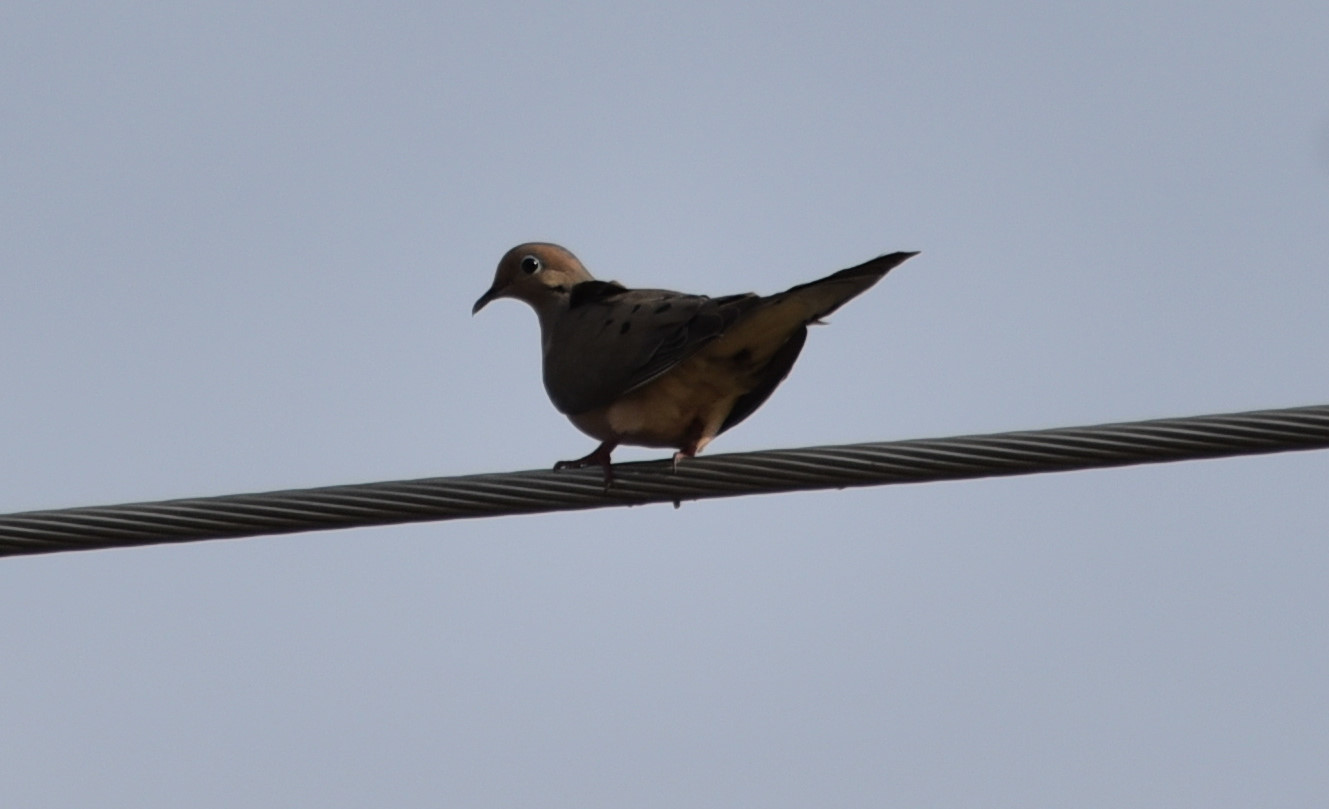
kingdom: Animalia
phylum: Chordata
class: Aves
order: Columbiformes
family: Columbidae
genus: Zenaida
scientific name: Zenaida macroura
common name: Mourning dove
